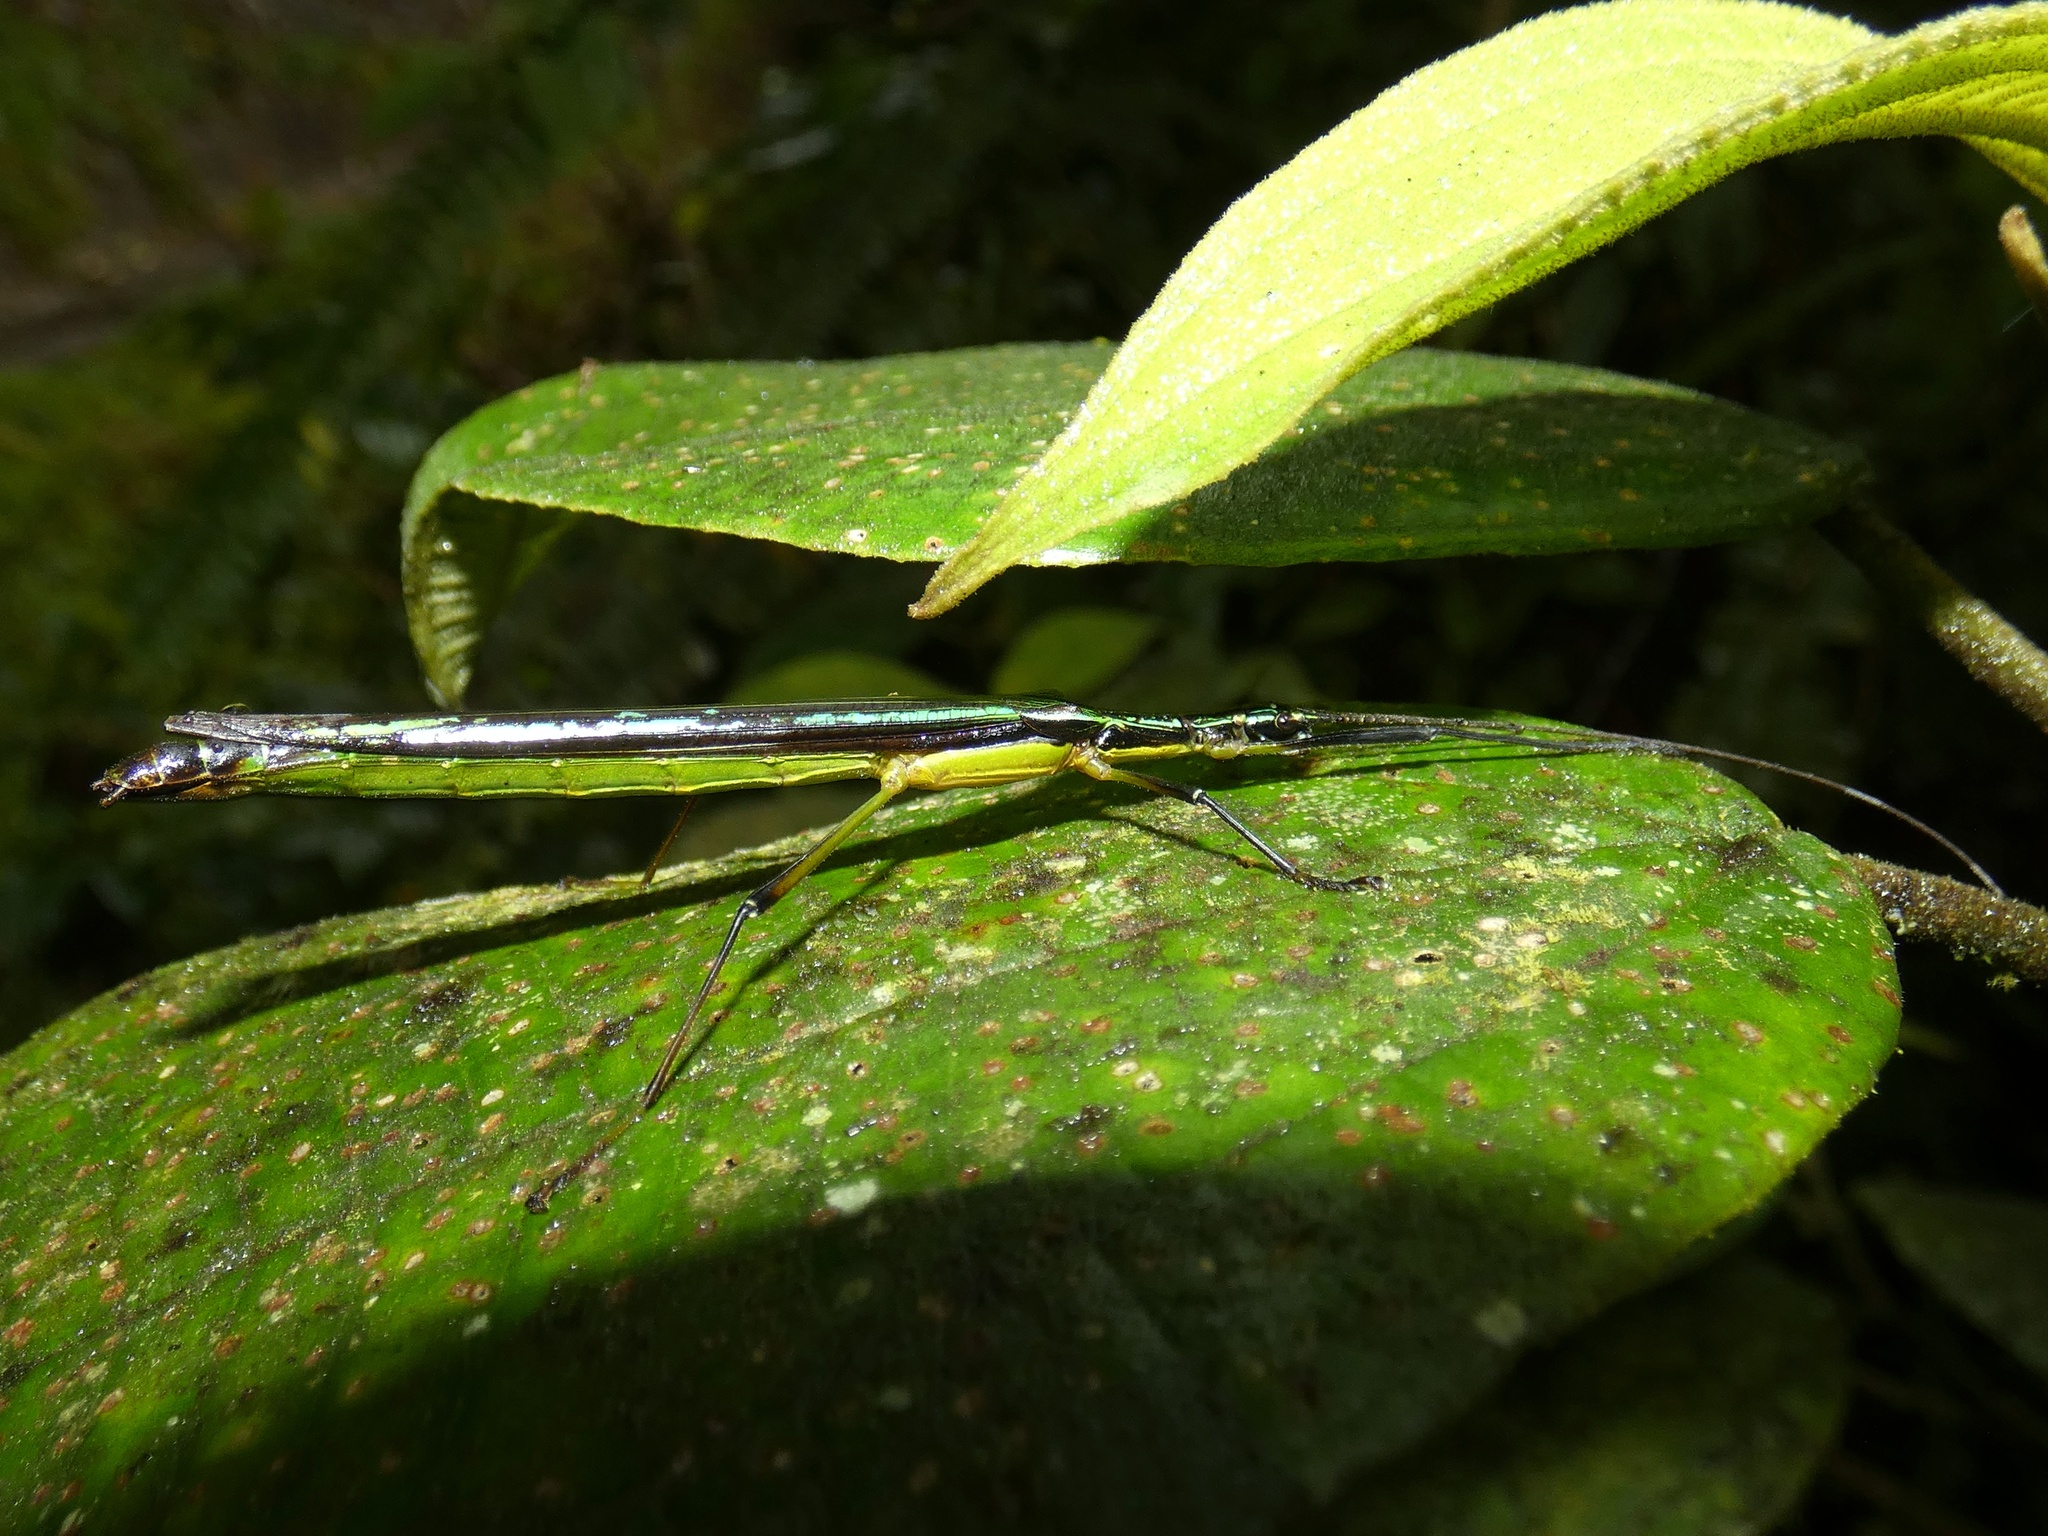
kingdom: Animalia
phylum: Arthropoda
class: Insecta
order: Phasmida
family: Pseudophasmatidae
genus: Cesaphasma
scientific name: Cesaphasma panamensis
